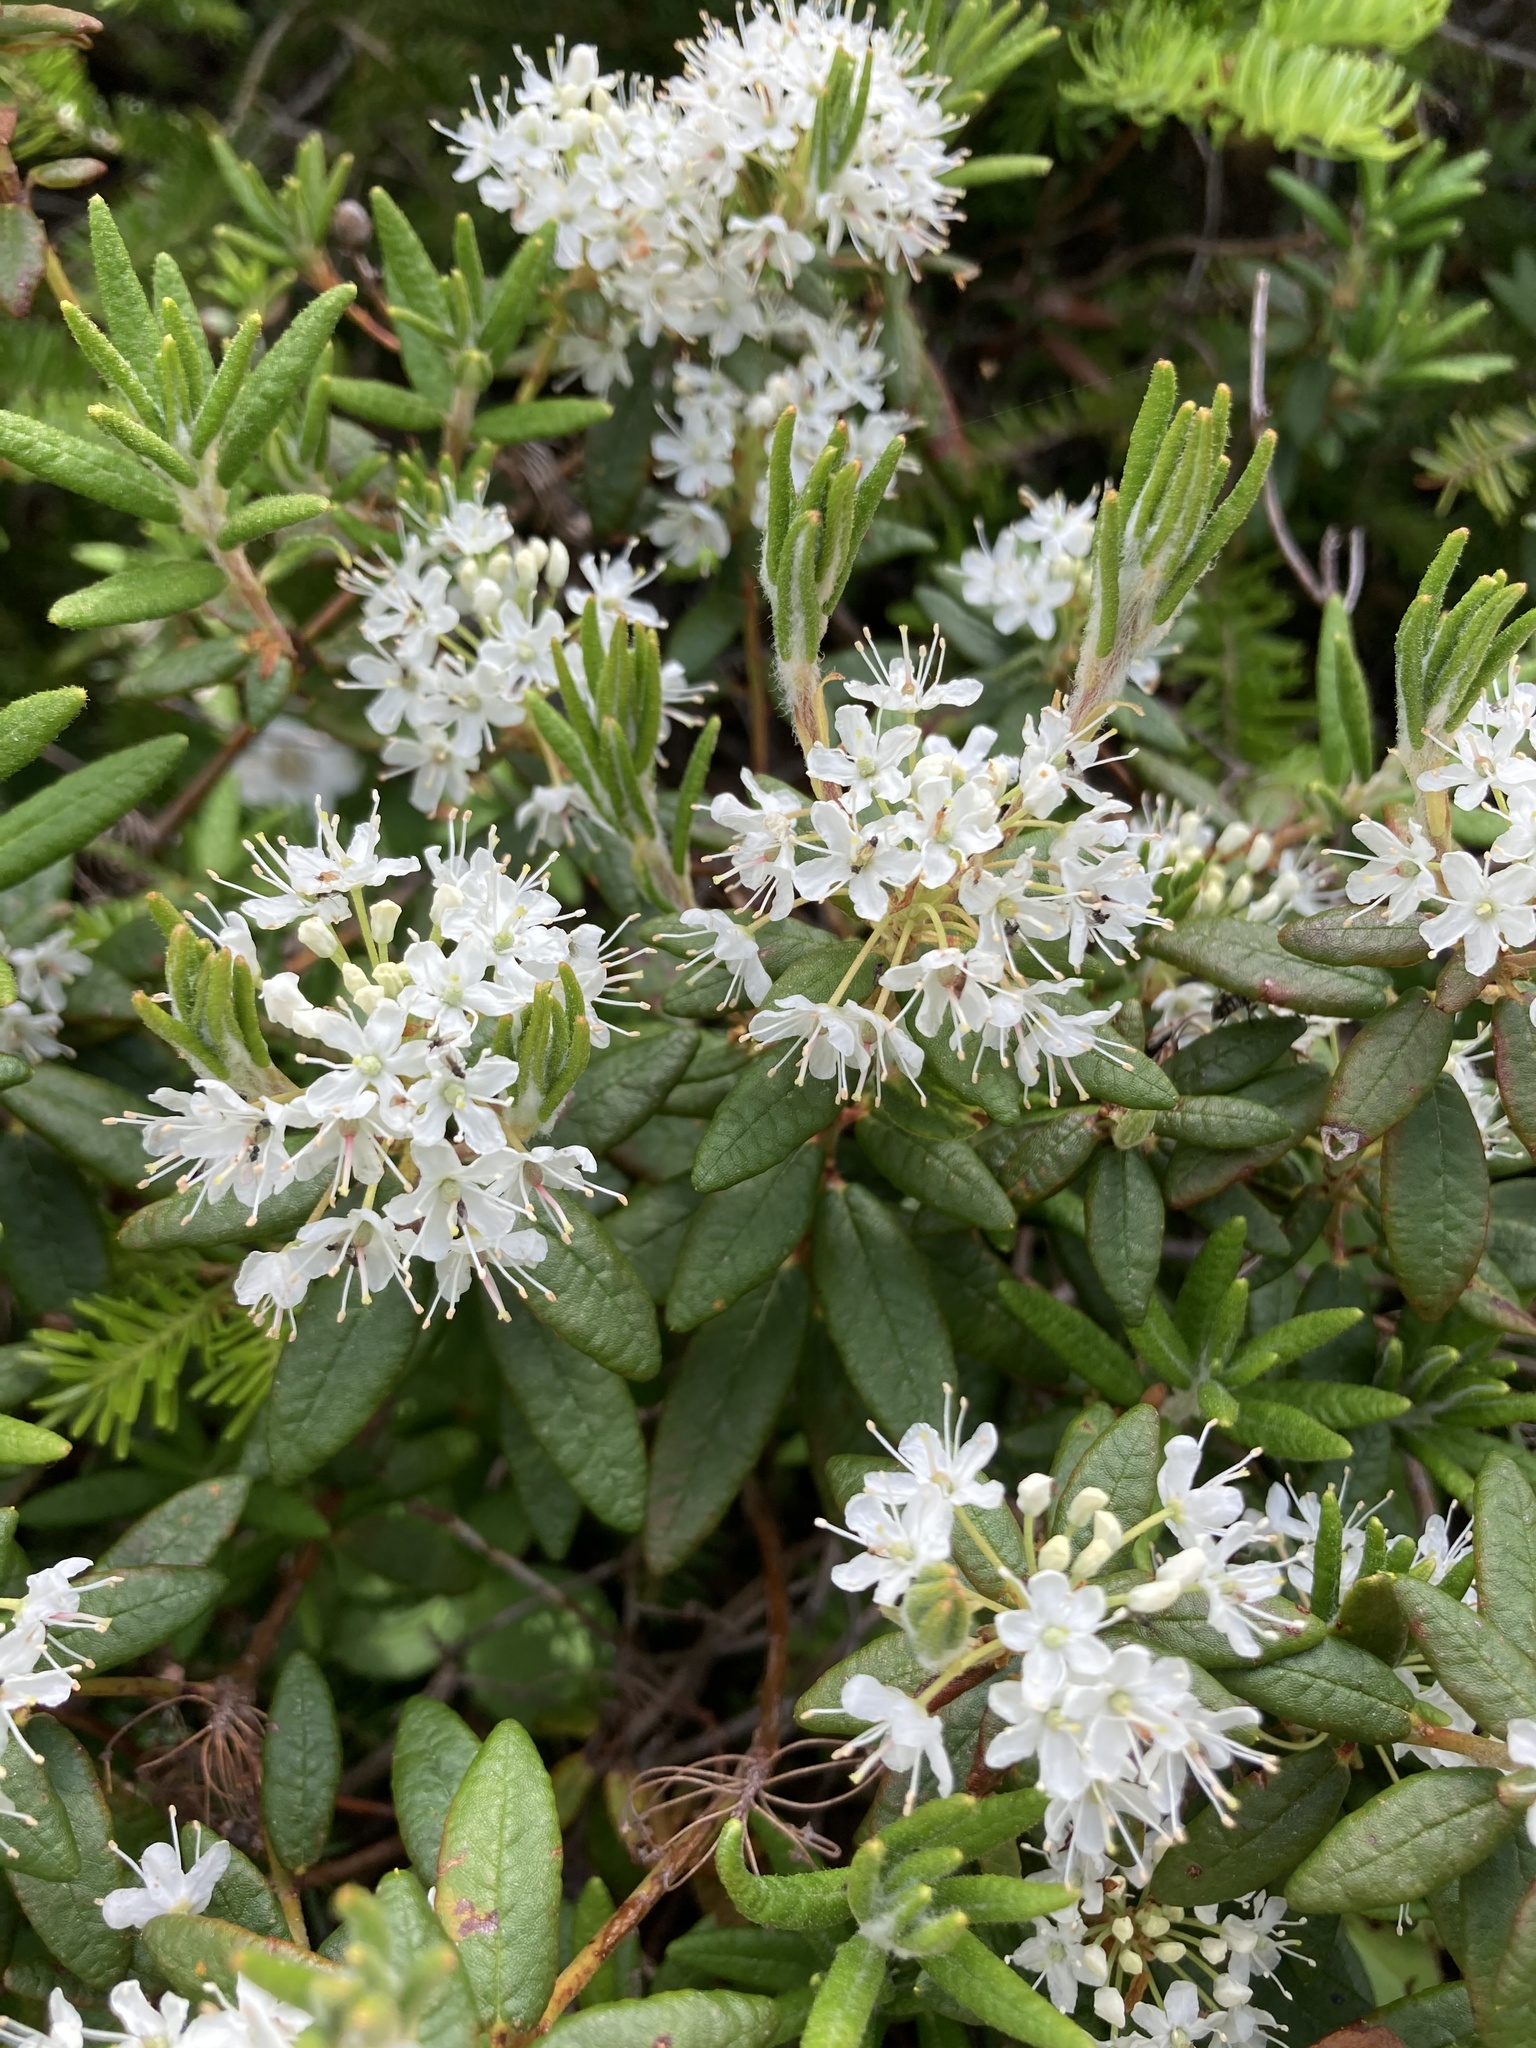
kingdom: Plantae
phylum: Tracheophyta
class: Magnoliopsida
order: Ericales
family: Ericaceae
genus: Rhododendron
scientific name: Rhododendron groenlandicum
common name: Bog labrador tea
